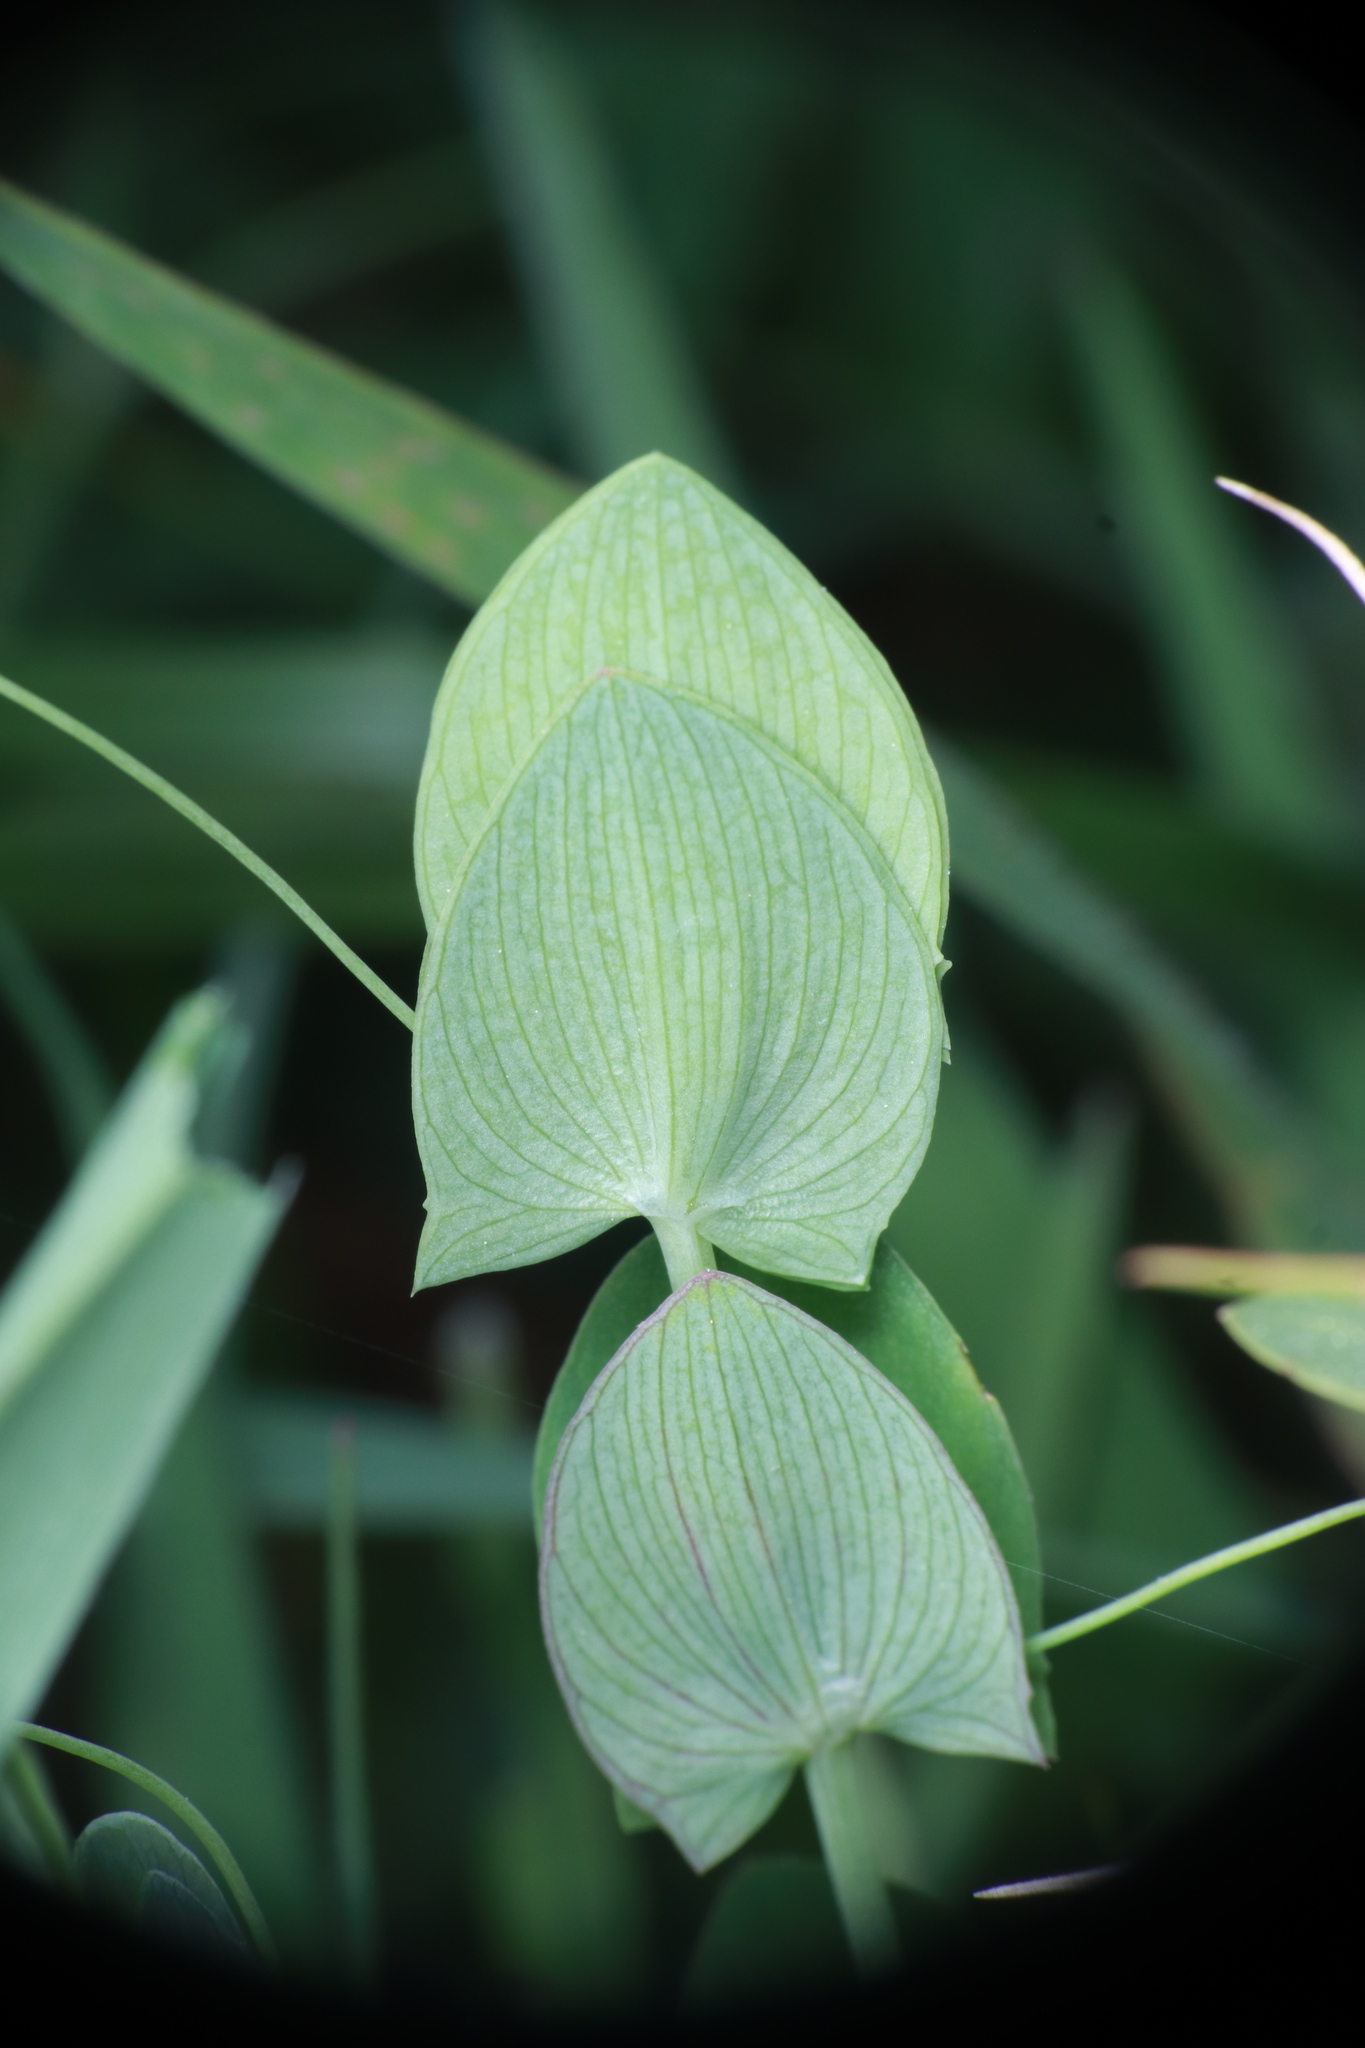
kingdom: Plantae
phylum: Tracheophyta
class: Magnoliopsida
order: Fabales
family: Fabaceae
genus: Lathyrus
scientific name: Lathyrus aphaca
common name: Yellow vetchling
